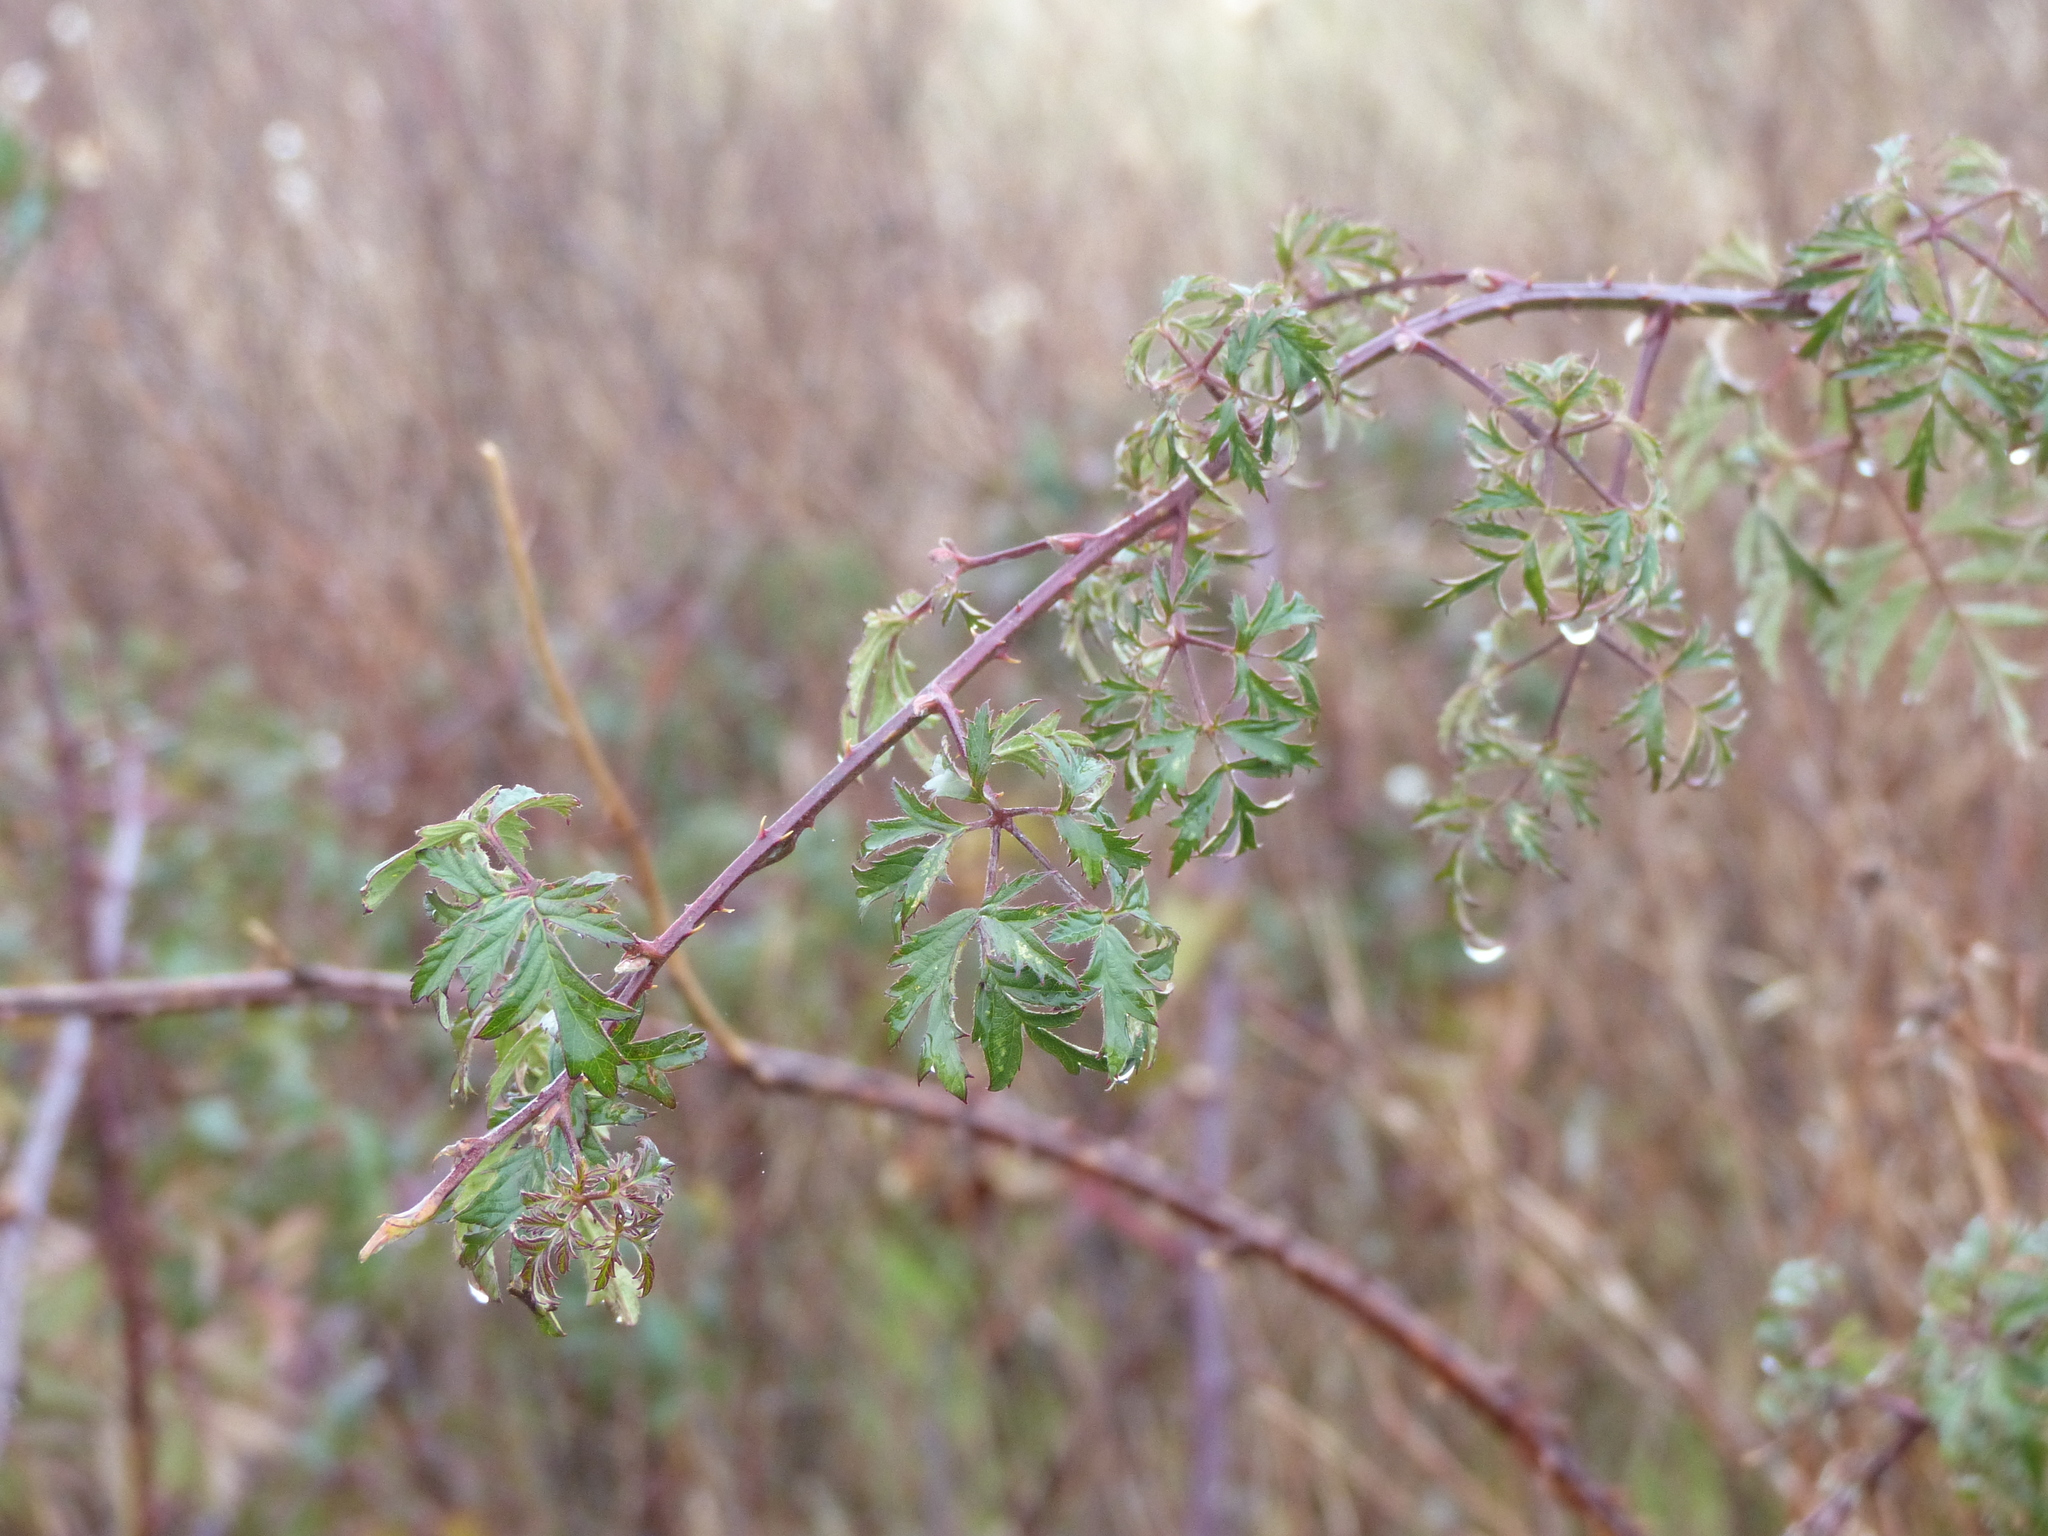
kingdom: Plantae
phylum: Tracheophyta
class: Magnoliopsida
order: Rosales
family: Rosaceae
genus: Rubus
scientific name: Rubus laciniatus
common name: Evergreen blackberry
